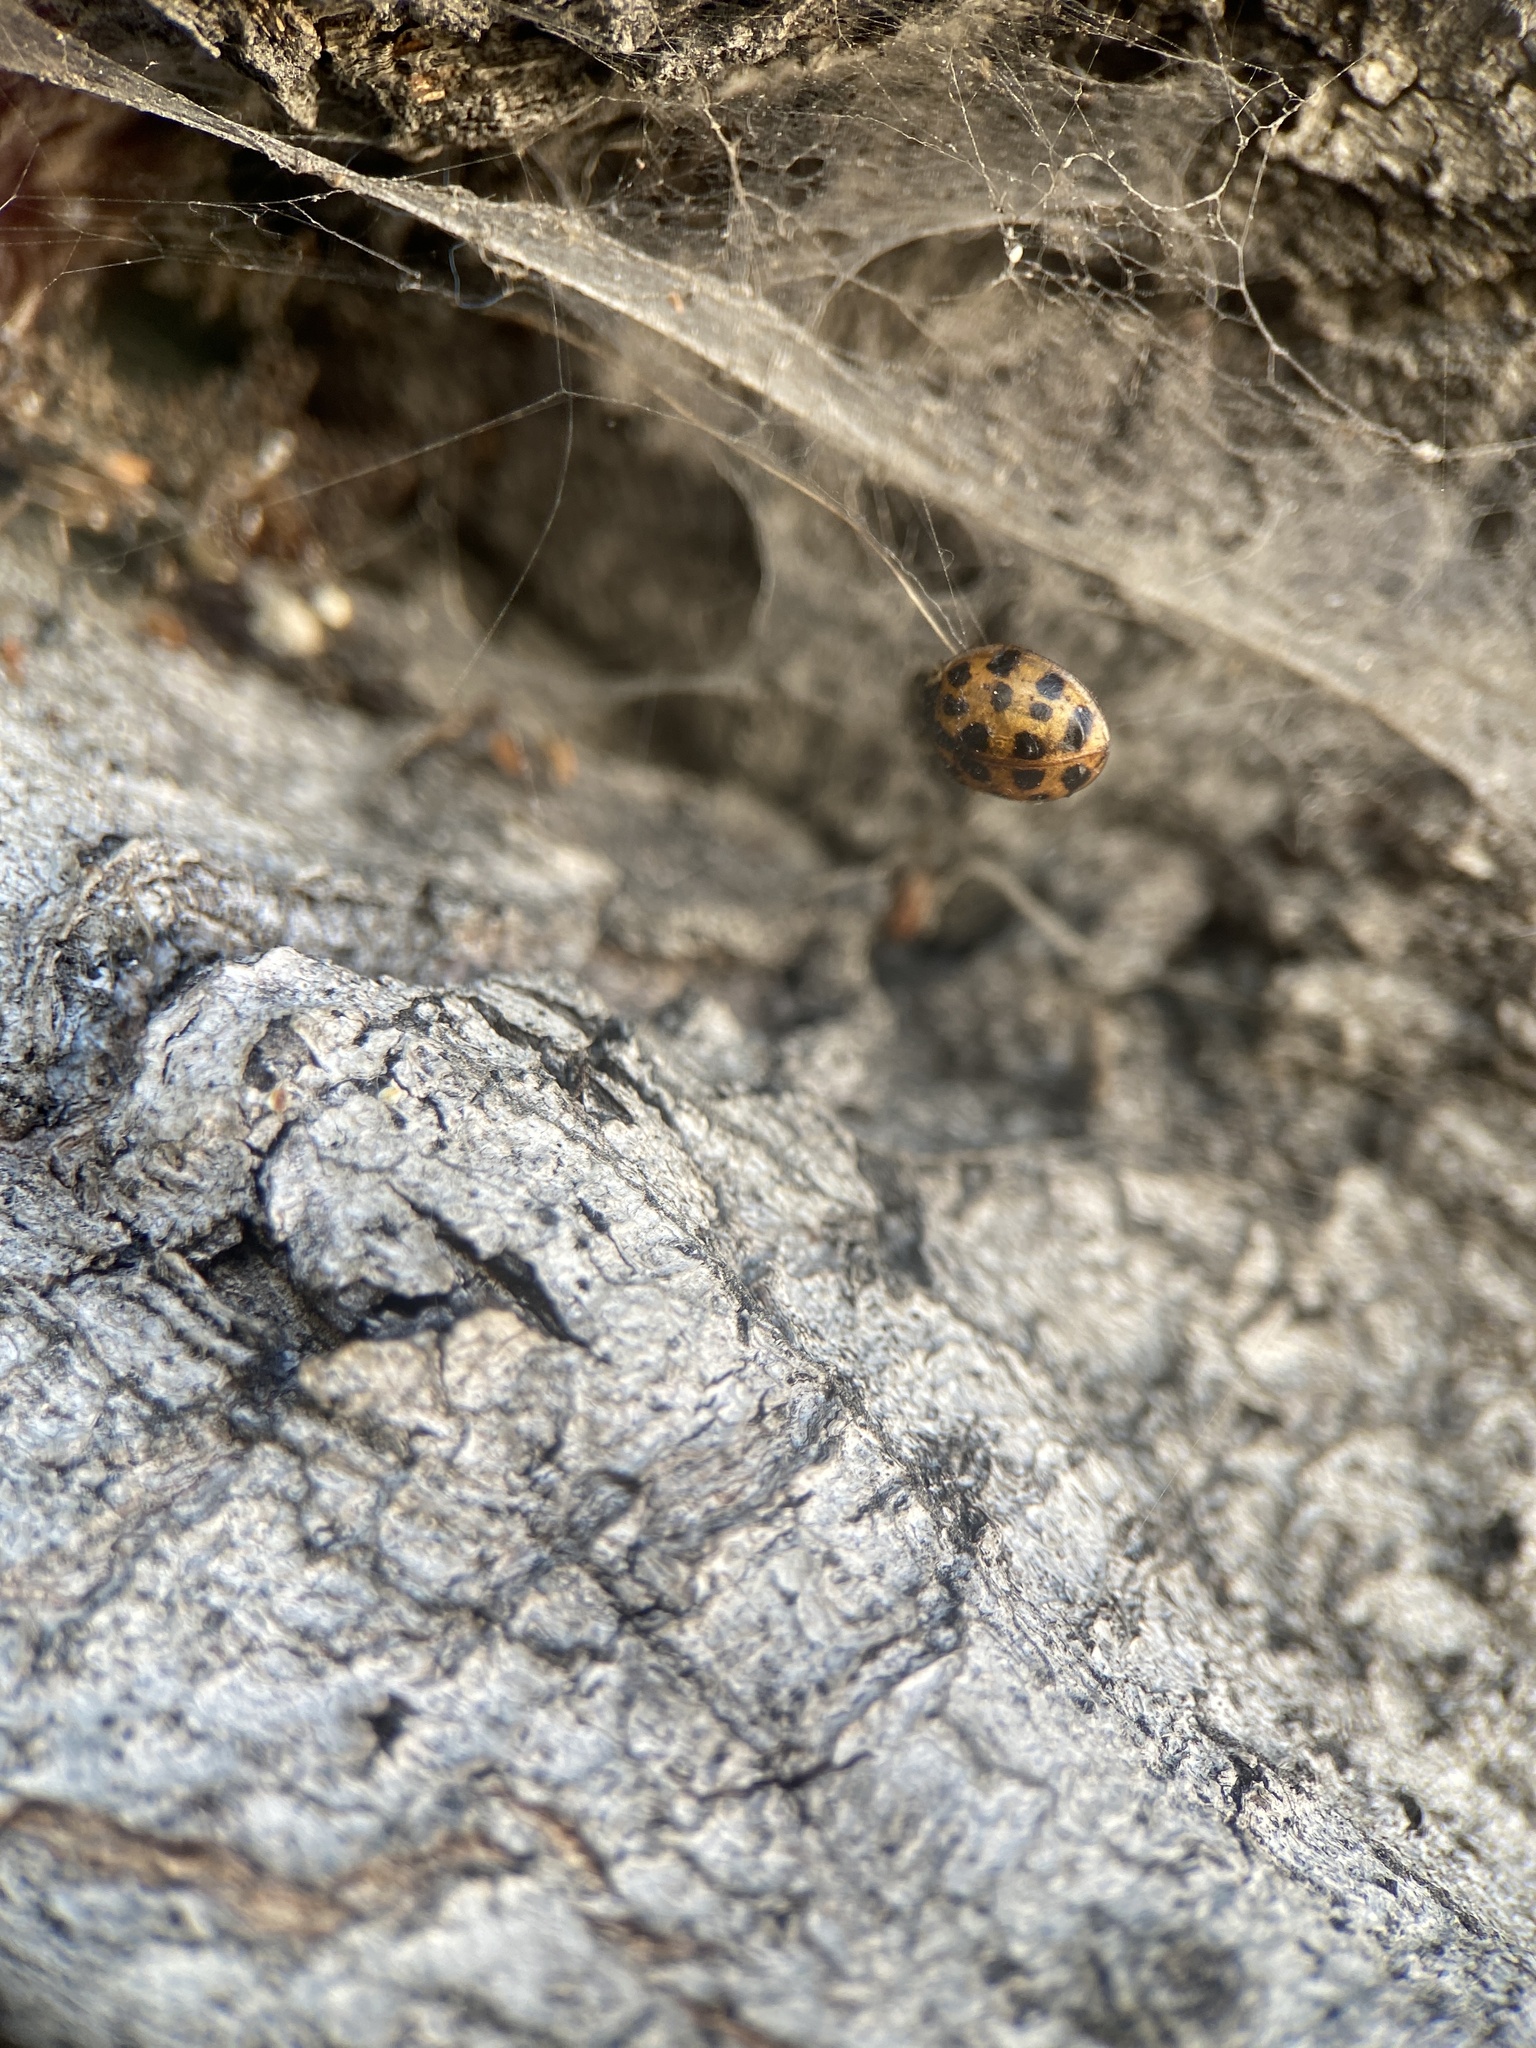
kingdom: Animalia
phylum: Arthropoda
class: Insecta
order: Coleoptera
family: Coccinellidae
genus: Harmonia
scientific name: Harmonia axyridis
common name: Harlequin ladybird
